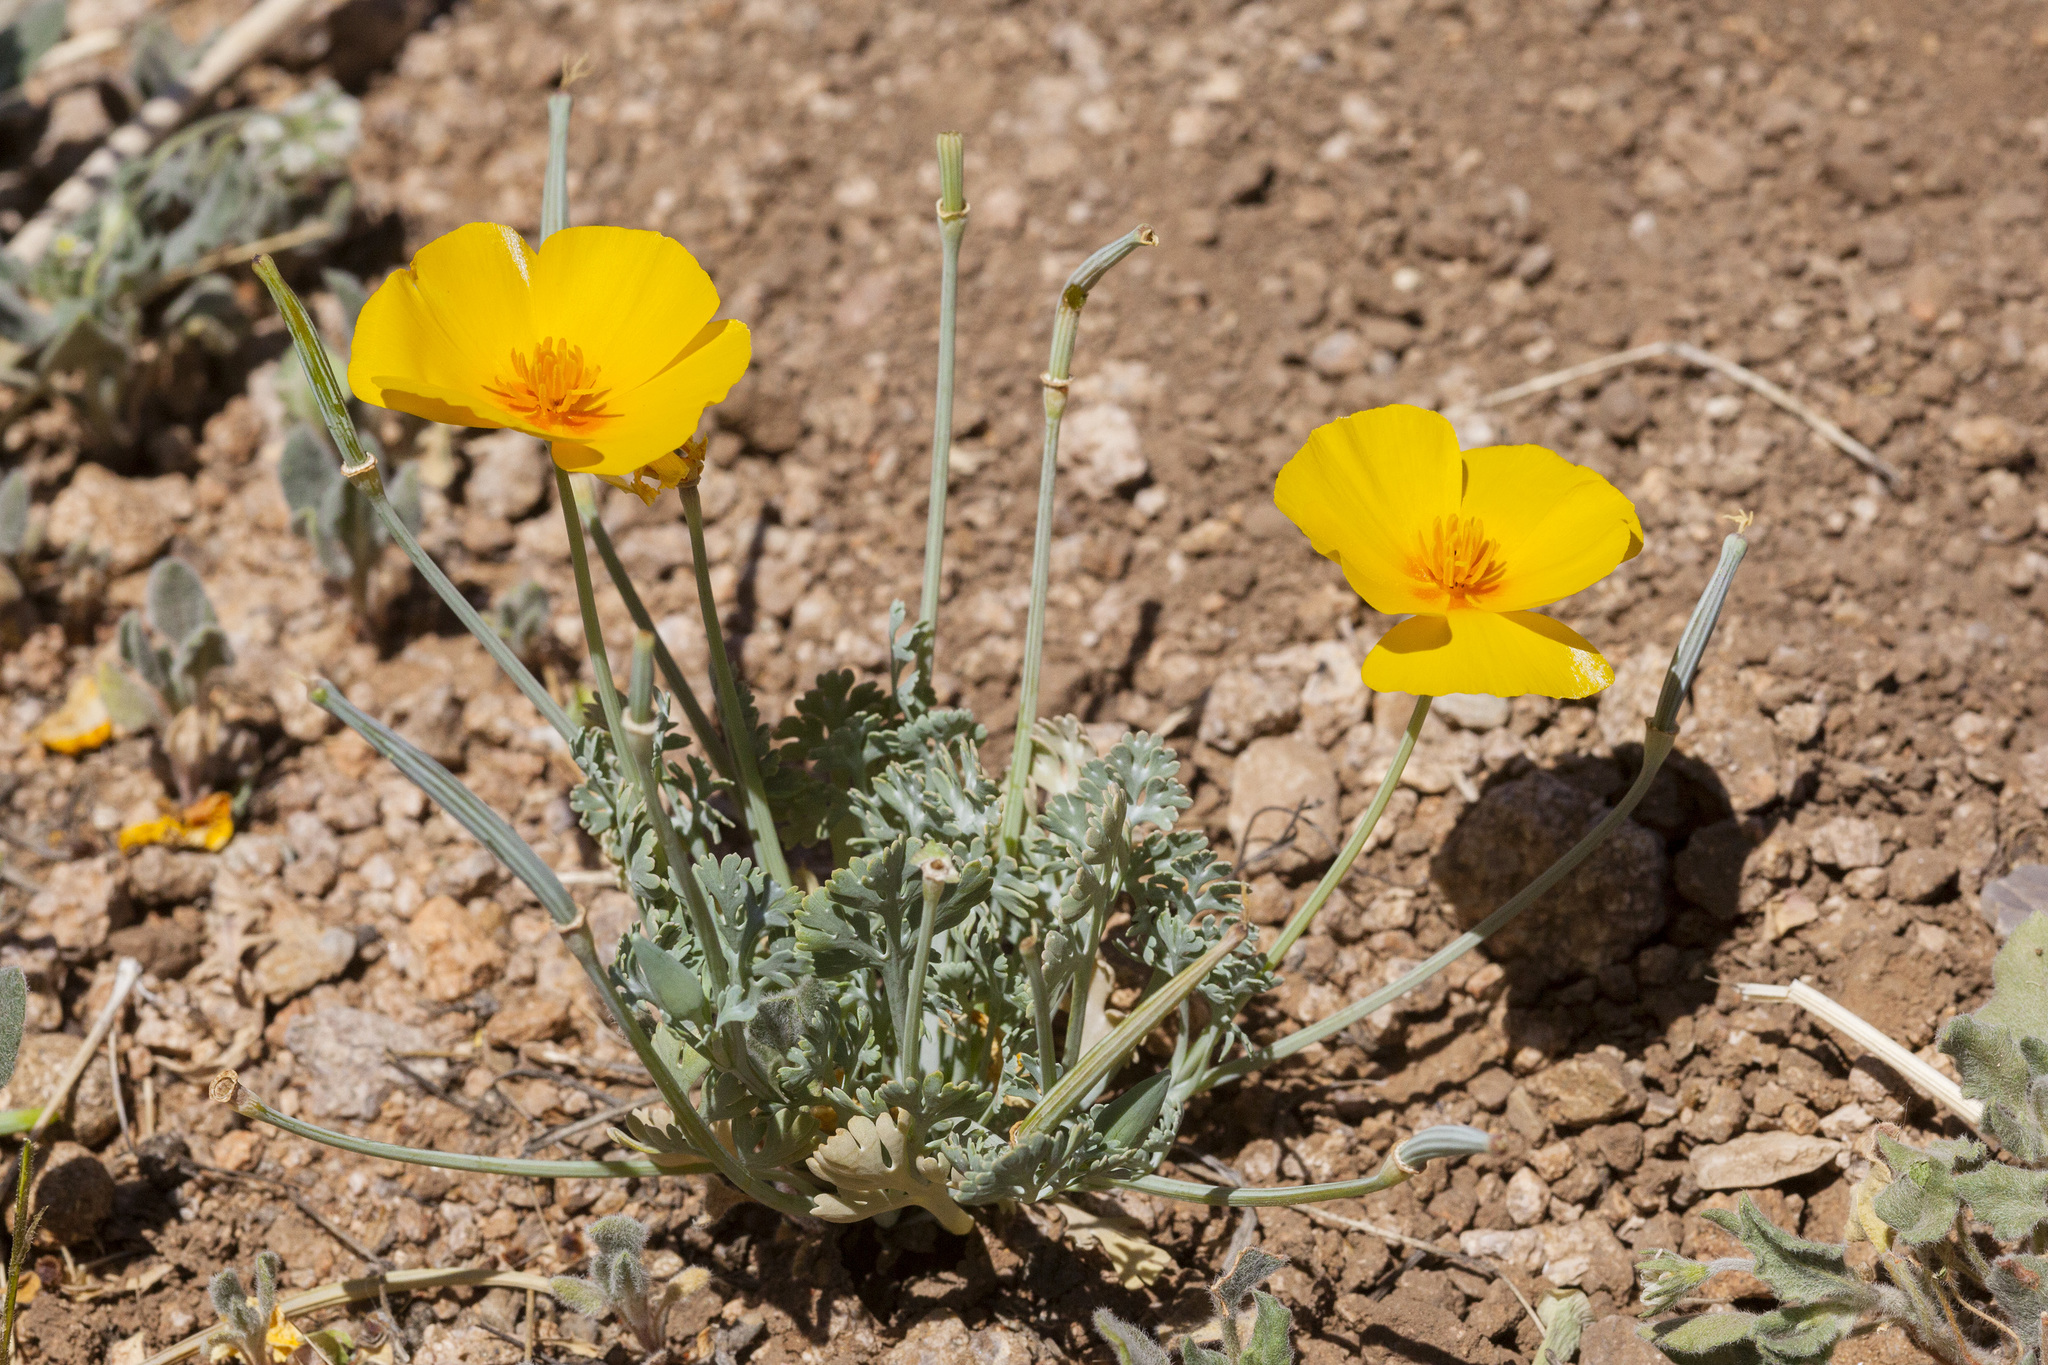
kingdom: Plantae
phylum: Tracheophyta
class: Magnoliopsida
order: Ranunculales
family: Papaveraceae
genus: Eschscholzia
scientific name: Eschscholzia californica
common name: California poppy
